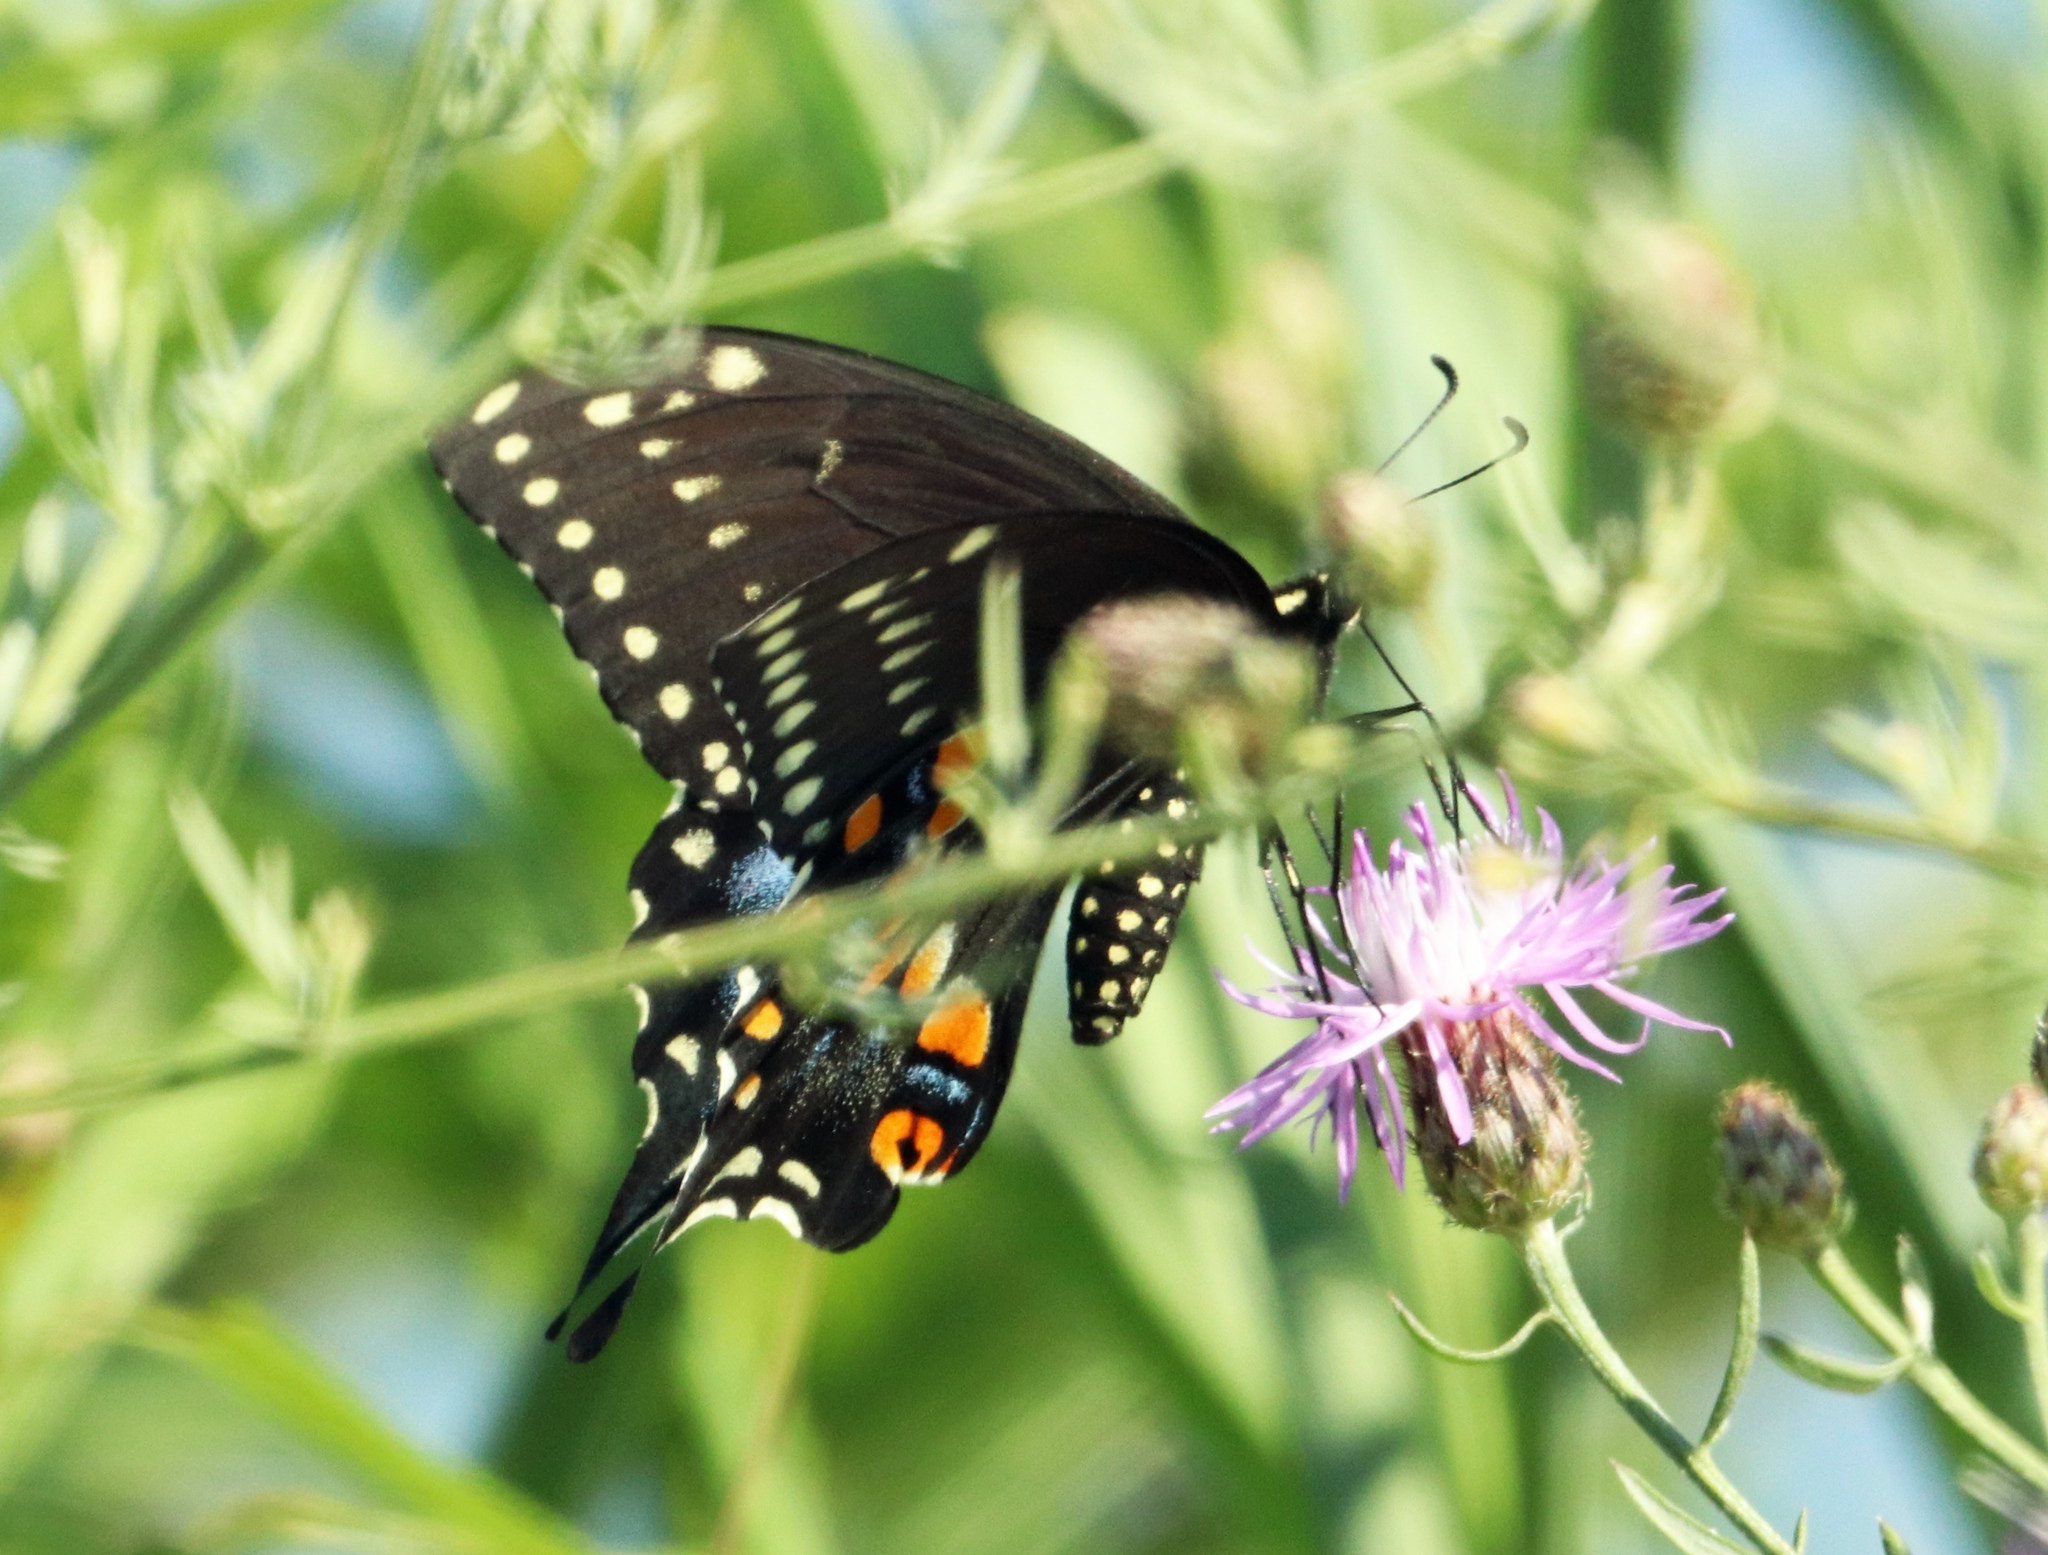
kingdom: Animalia
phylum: Arthropoda
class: Insecta
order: Lepidoptera
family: Papilionidae
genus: Papilio
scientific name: Papilio polyxenes
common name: Black swallowtail
